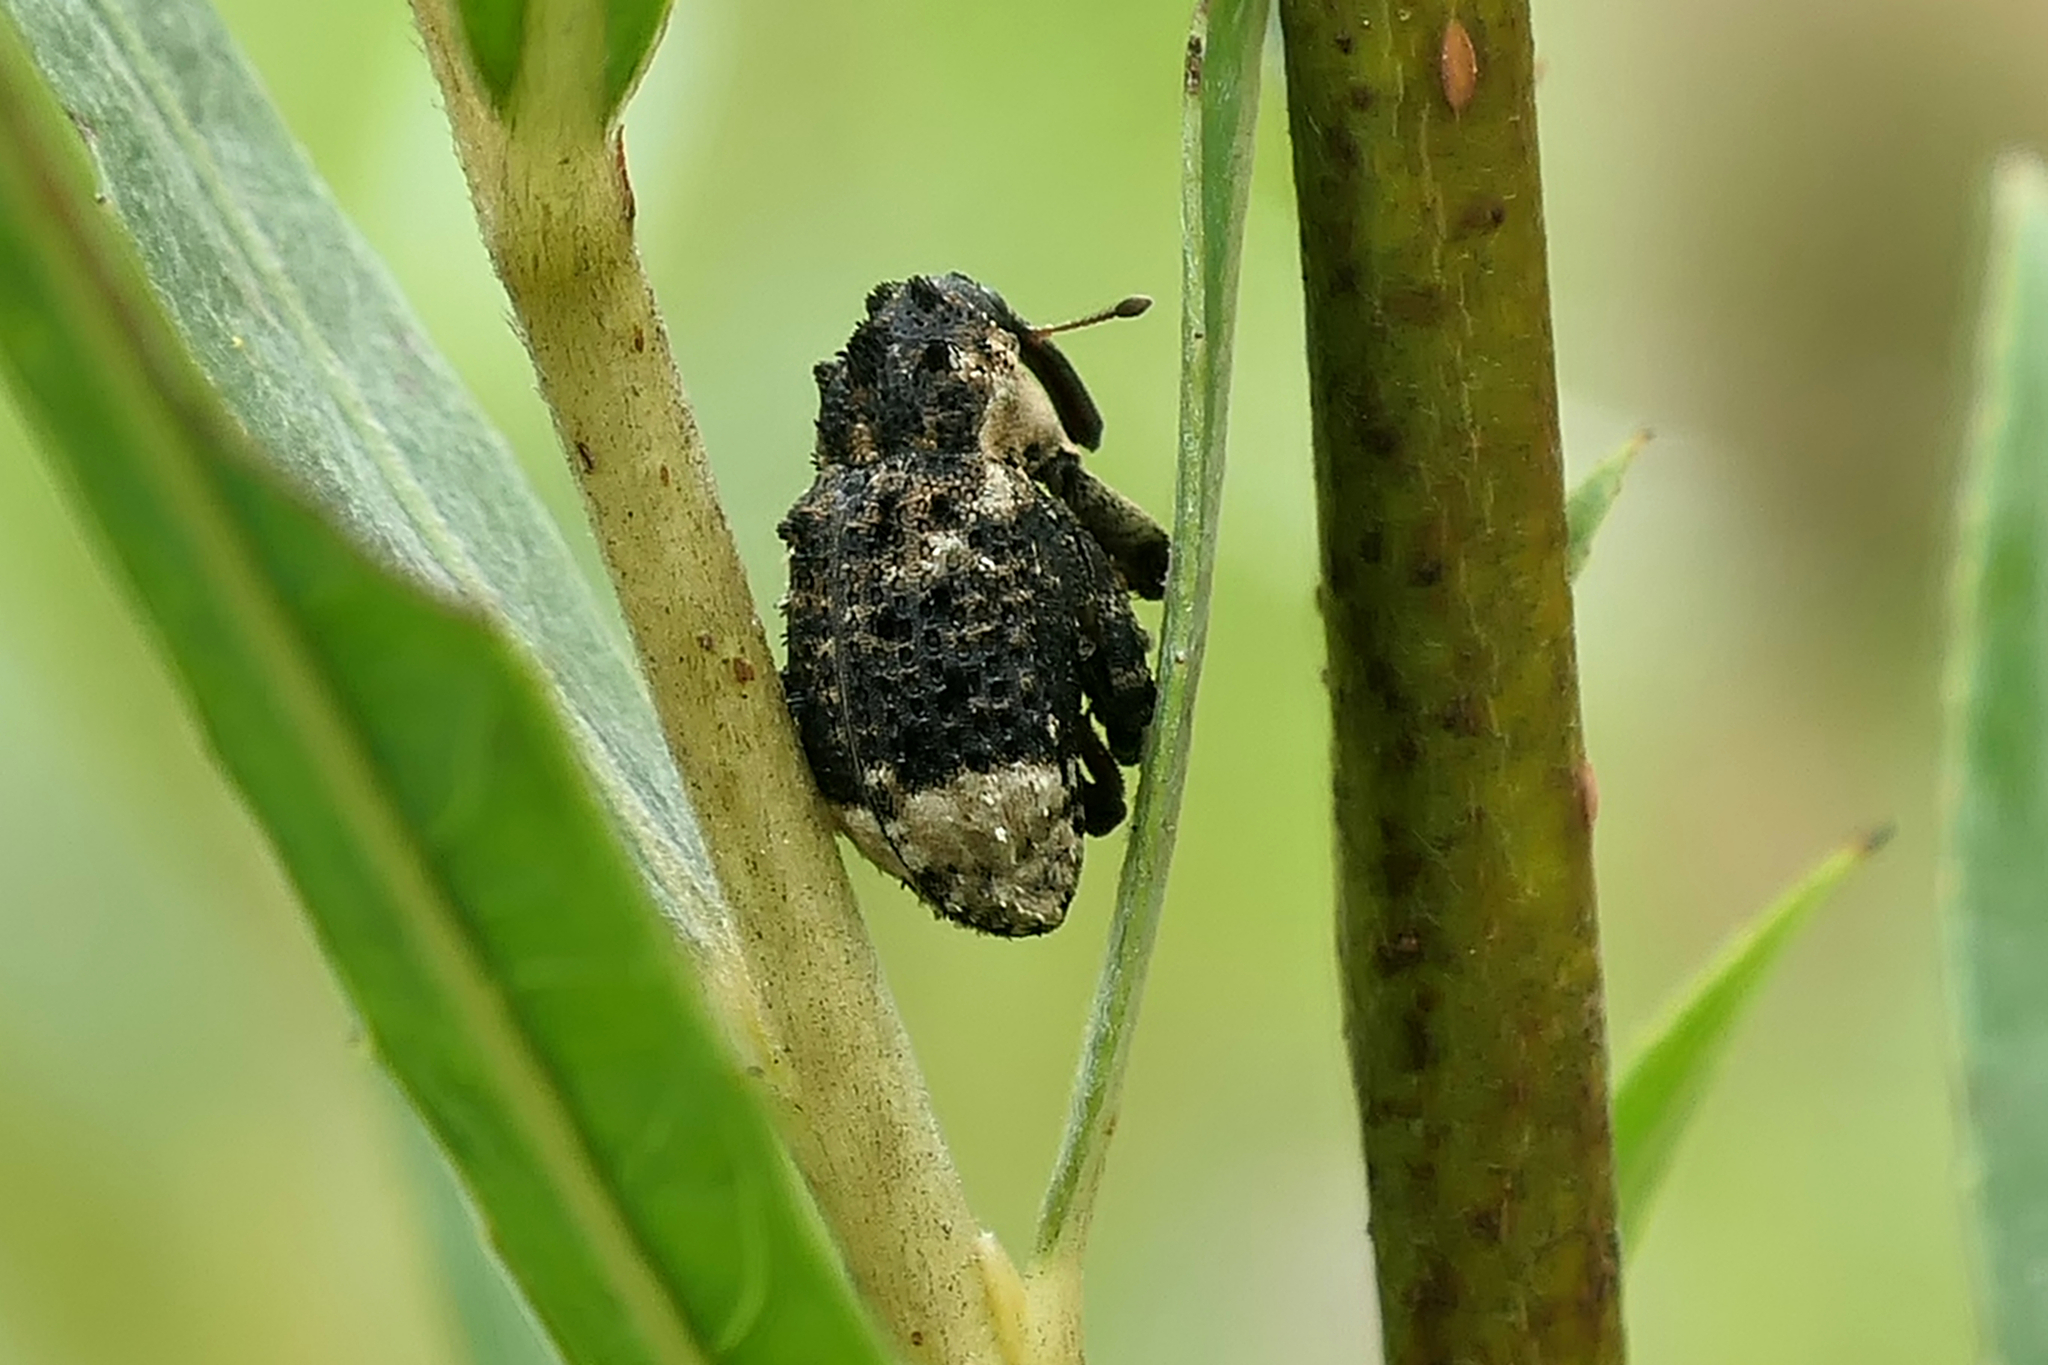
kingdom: Animalia
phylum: Arthropoda
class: Insecta
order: Coleoptera
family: Curculionidae
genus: Cryptorhynchus
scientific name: Cryptorhynchus lapathi
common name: Weevil
